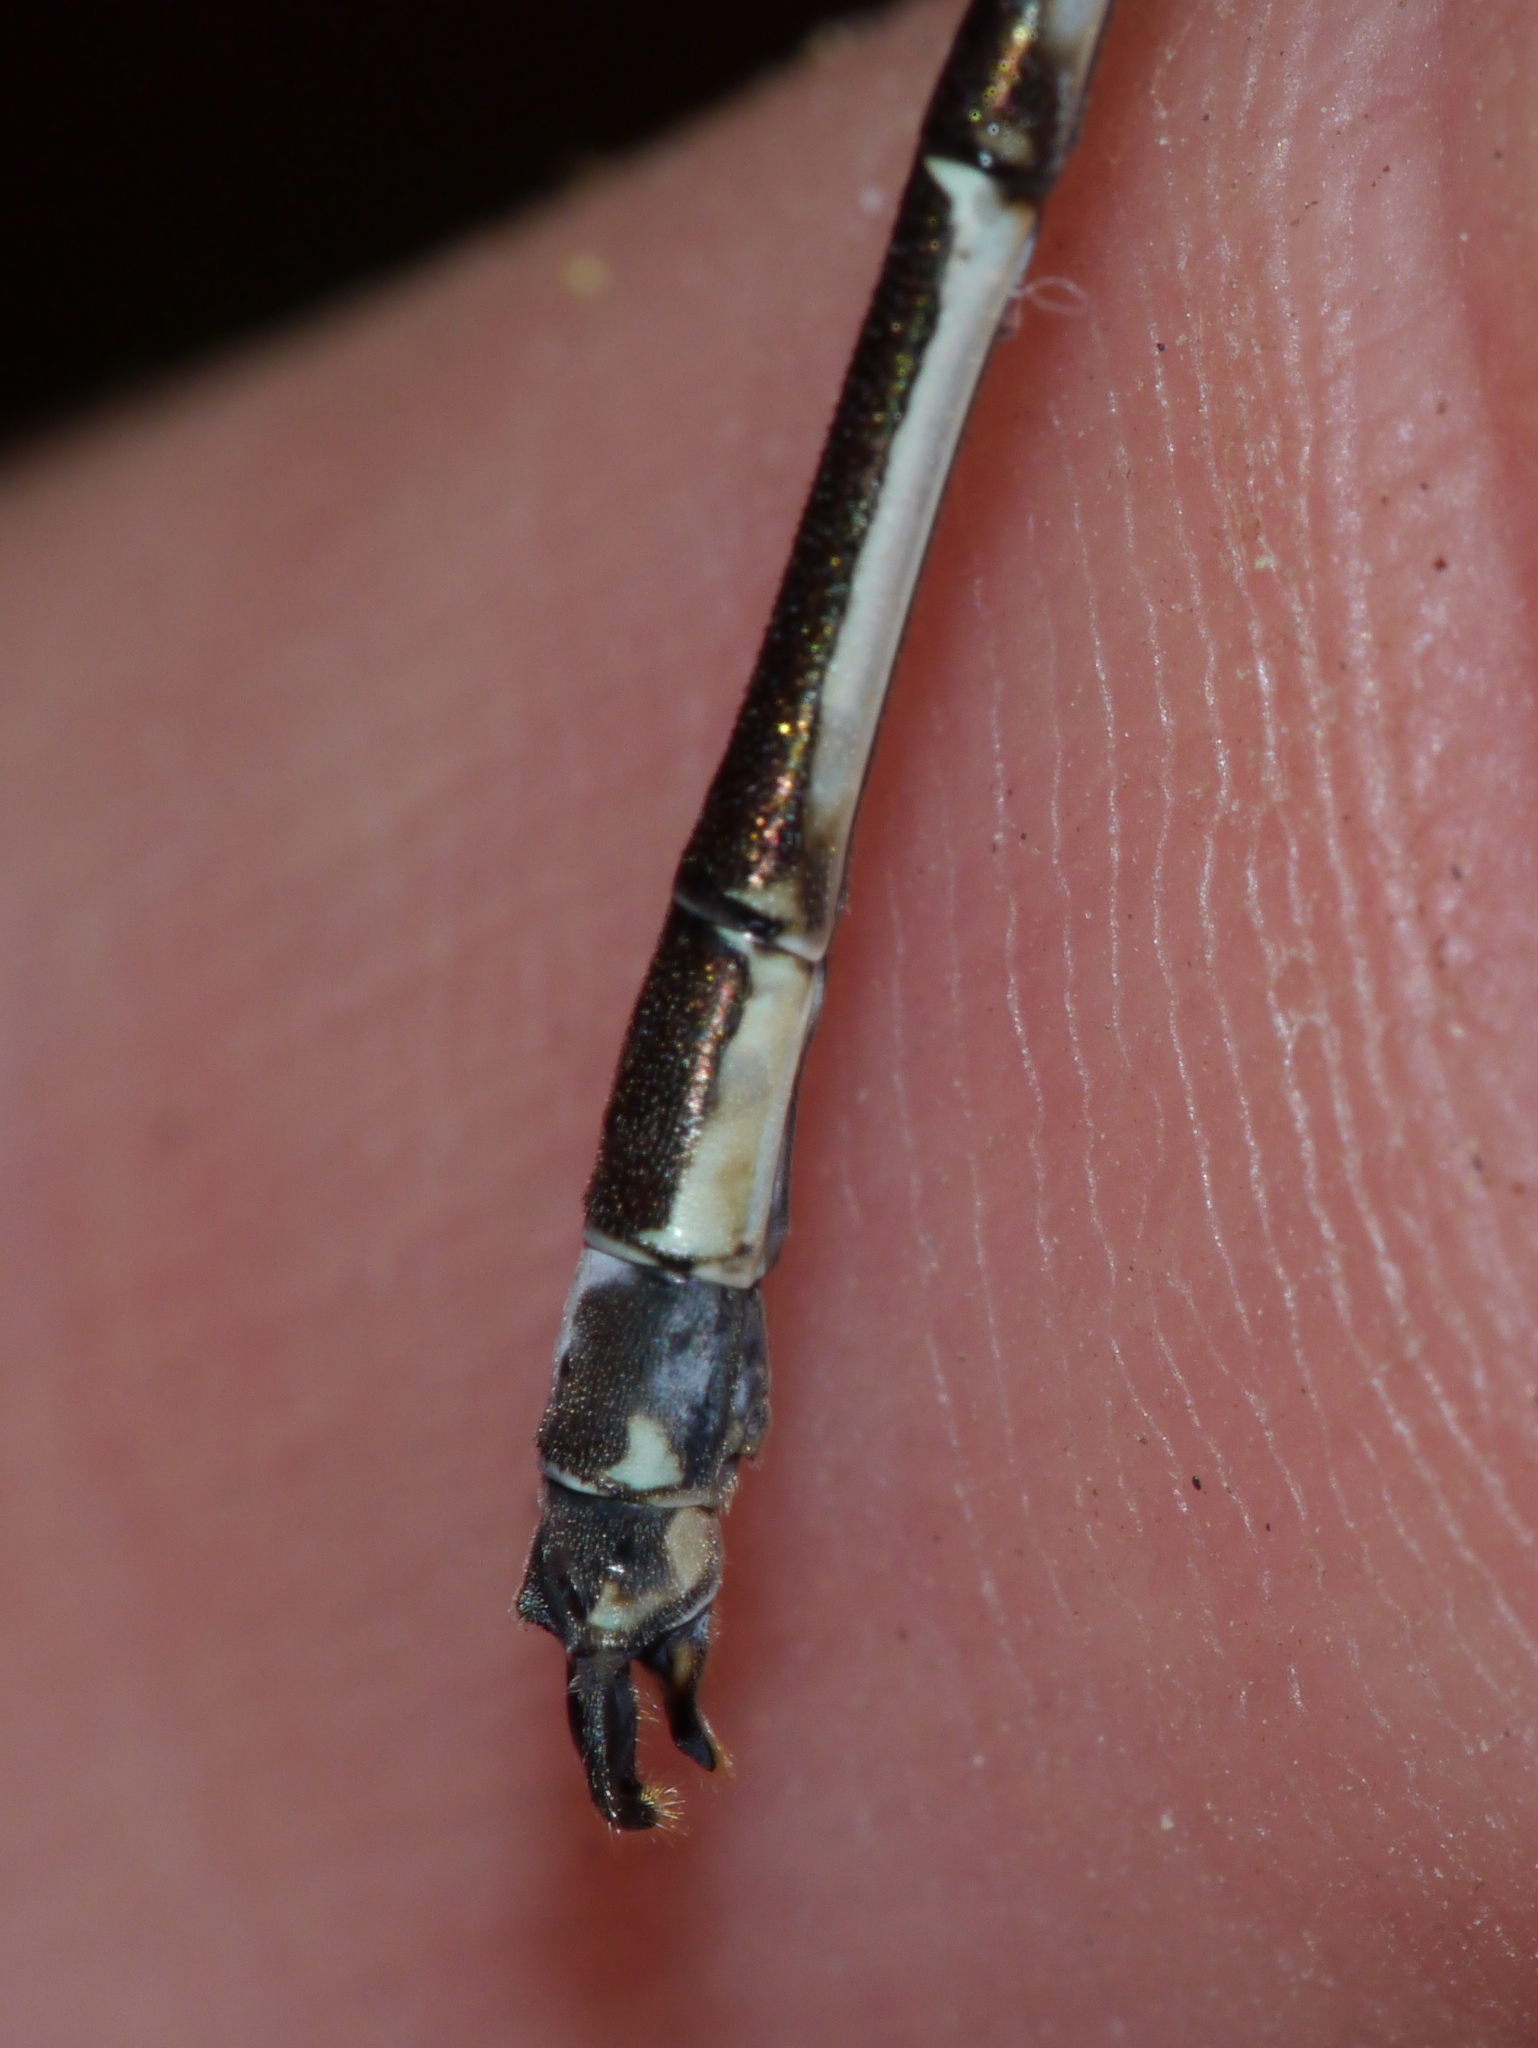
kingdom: Animalia
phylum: Arthropoda
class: Insecta
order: Odonata
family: Lestidae
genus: Lestes
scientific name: Lestes rectangularis
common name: Slender spreadwing
